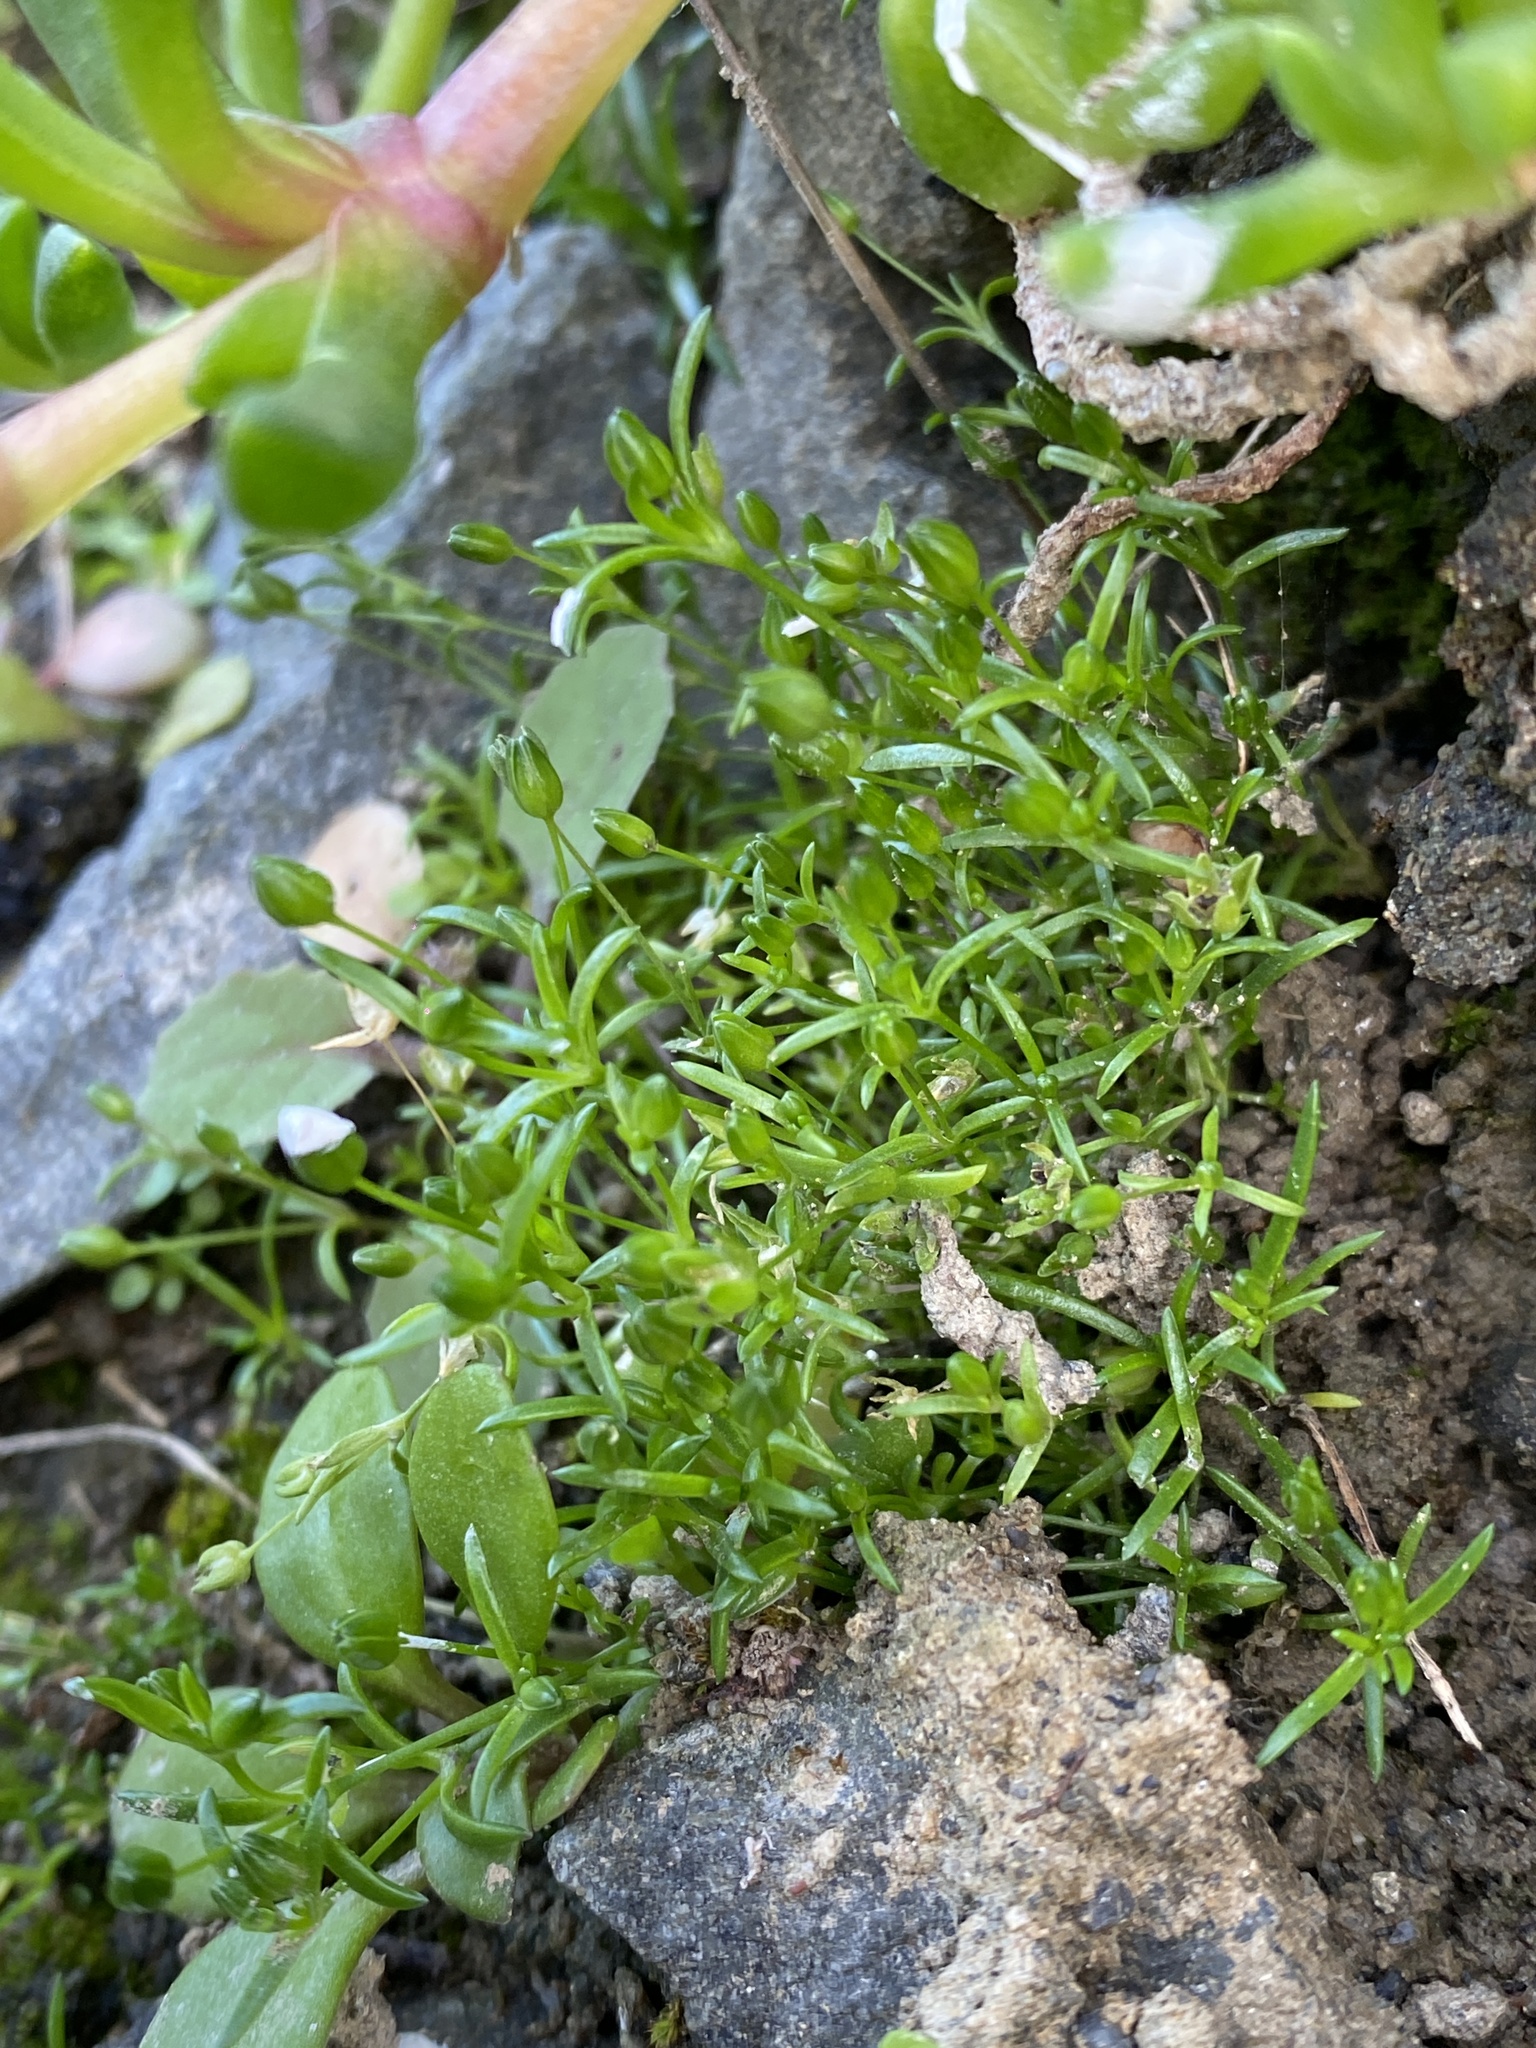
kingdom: Plantae
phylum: Tracheophyta
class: Magnoliopsida
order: Caryophyllales
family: Caryophyllaceae
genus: Sagina
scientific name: Sagina procumbens
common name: Procumbent pearlwort
